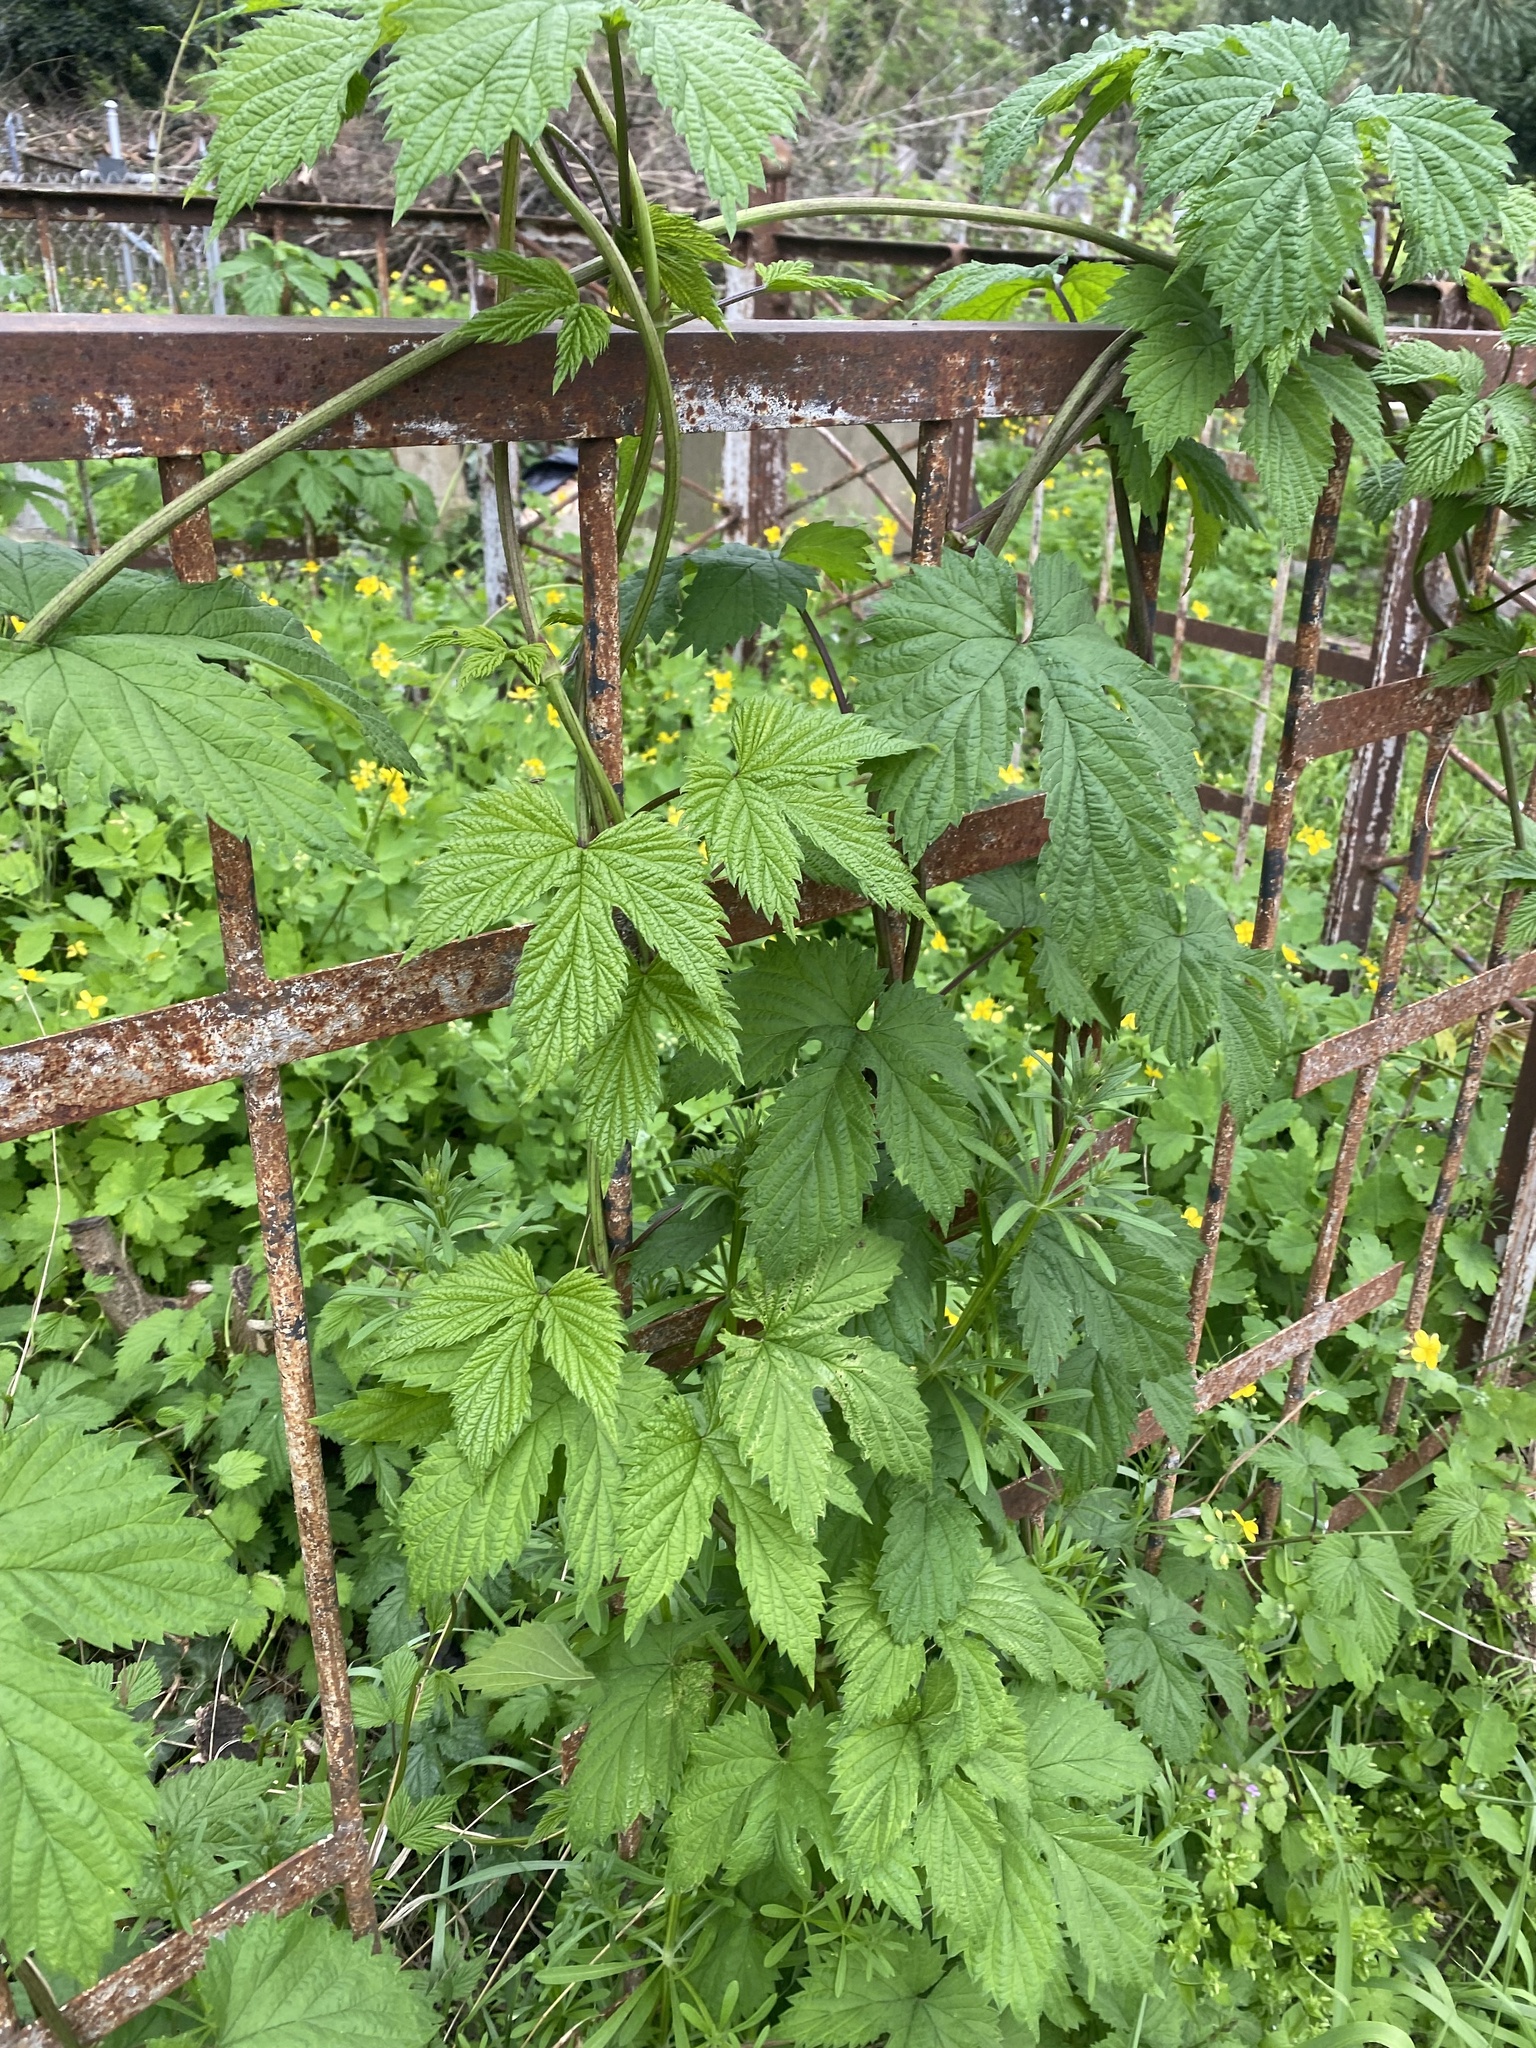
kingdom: Plantae
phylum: Tracheophyta
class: Magnoliopsida
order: Rosales
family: Cannabaceae
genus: Humulus
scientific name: Humulus lupulus
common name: Hop
